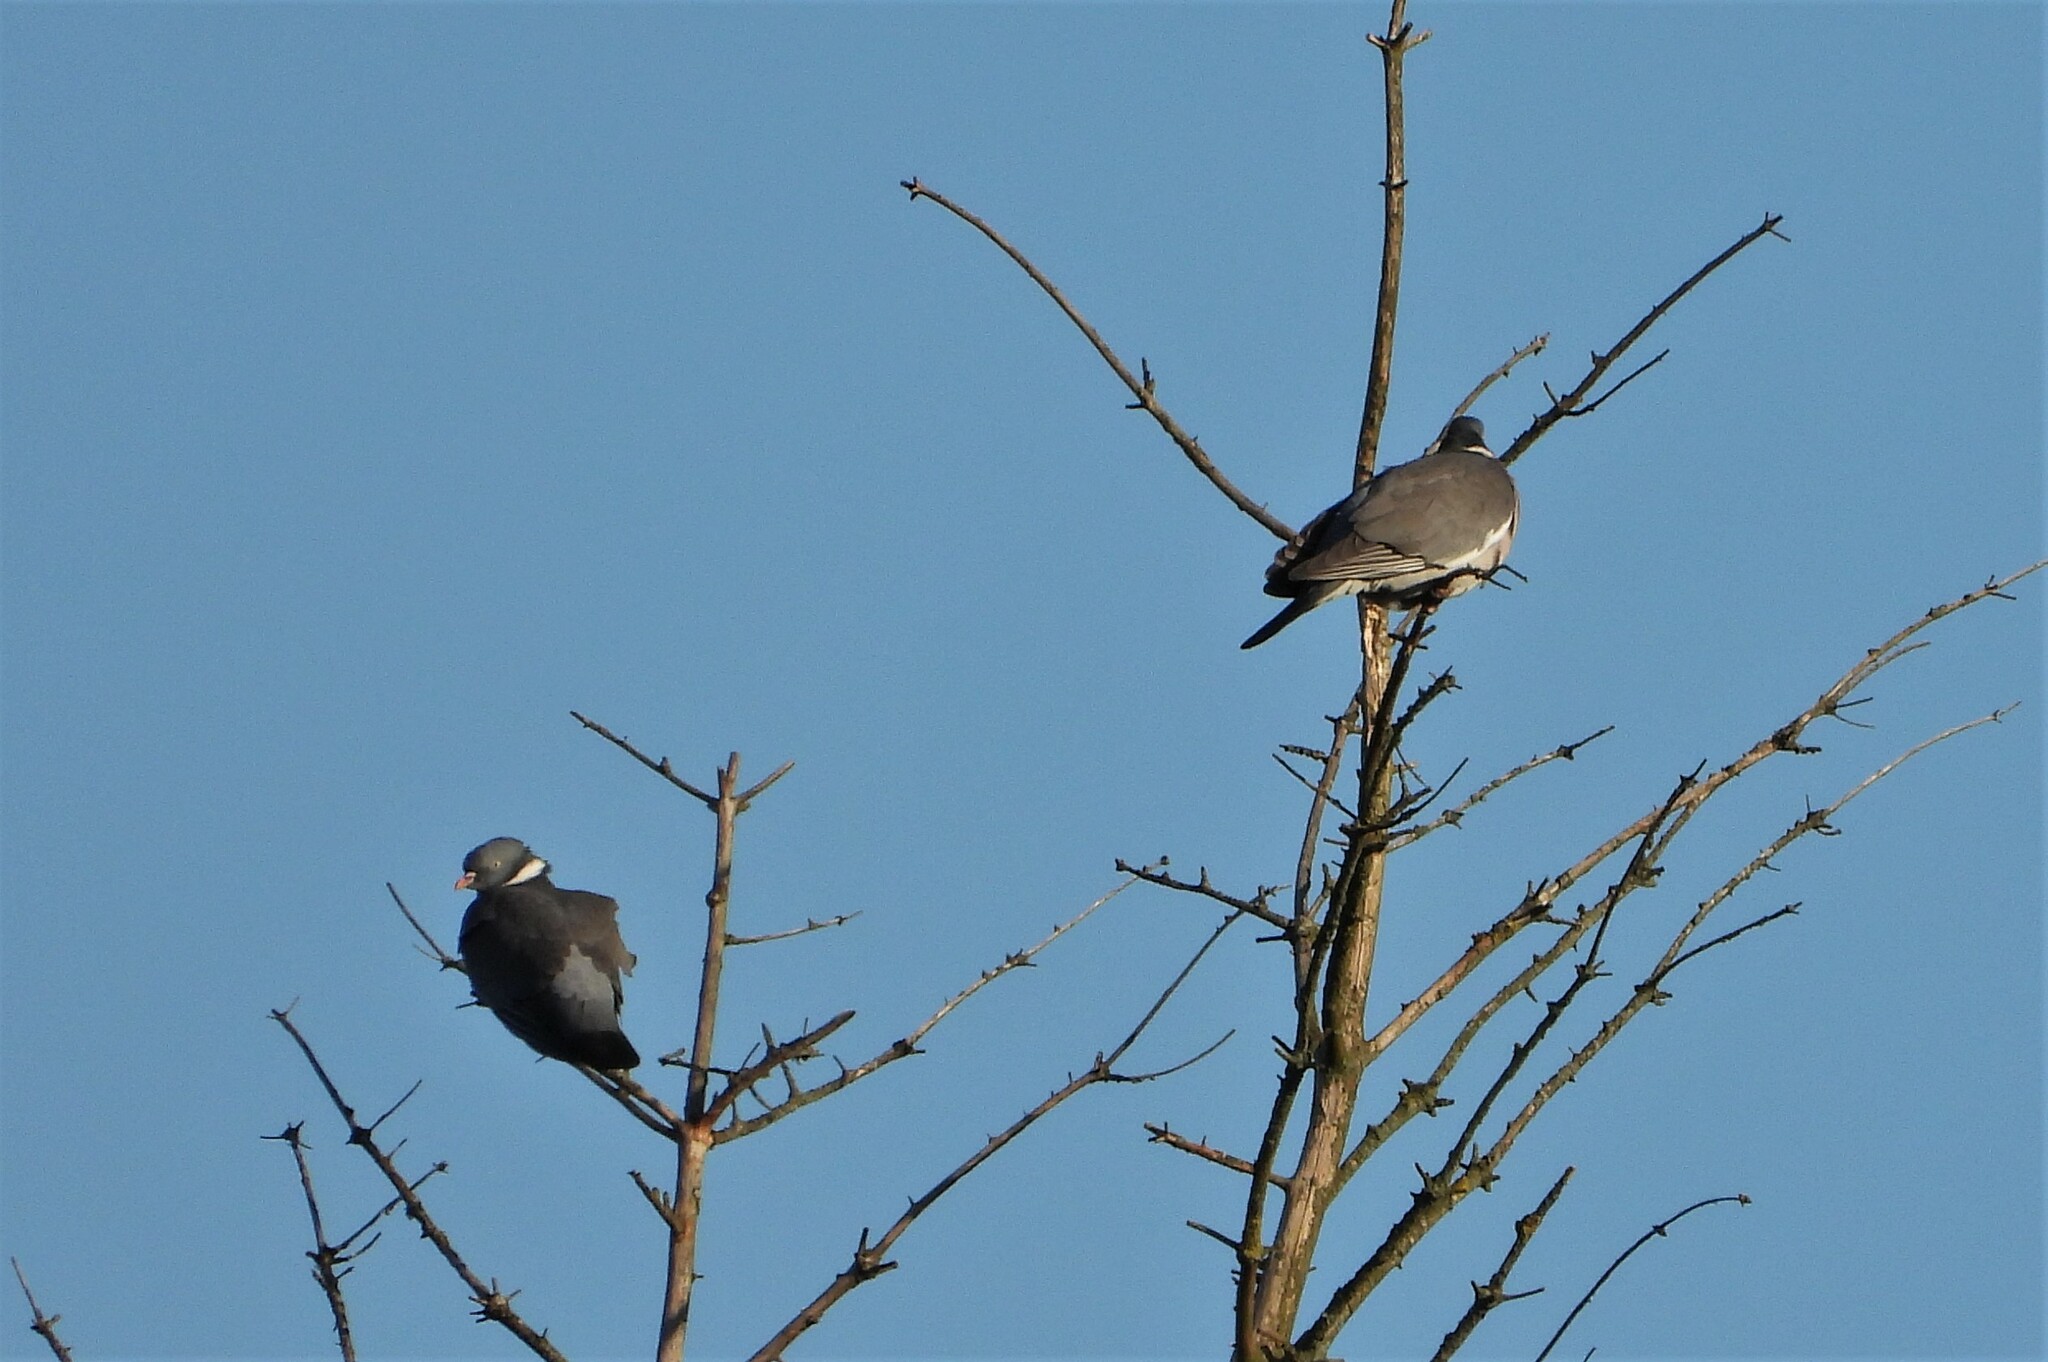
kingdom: Animalia
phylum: Chordata
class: Aves
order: Columbiformes
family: Columbidae
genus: Columba
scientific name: Columba palumbus
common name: Common wood pigeon
